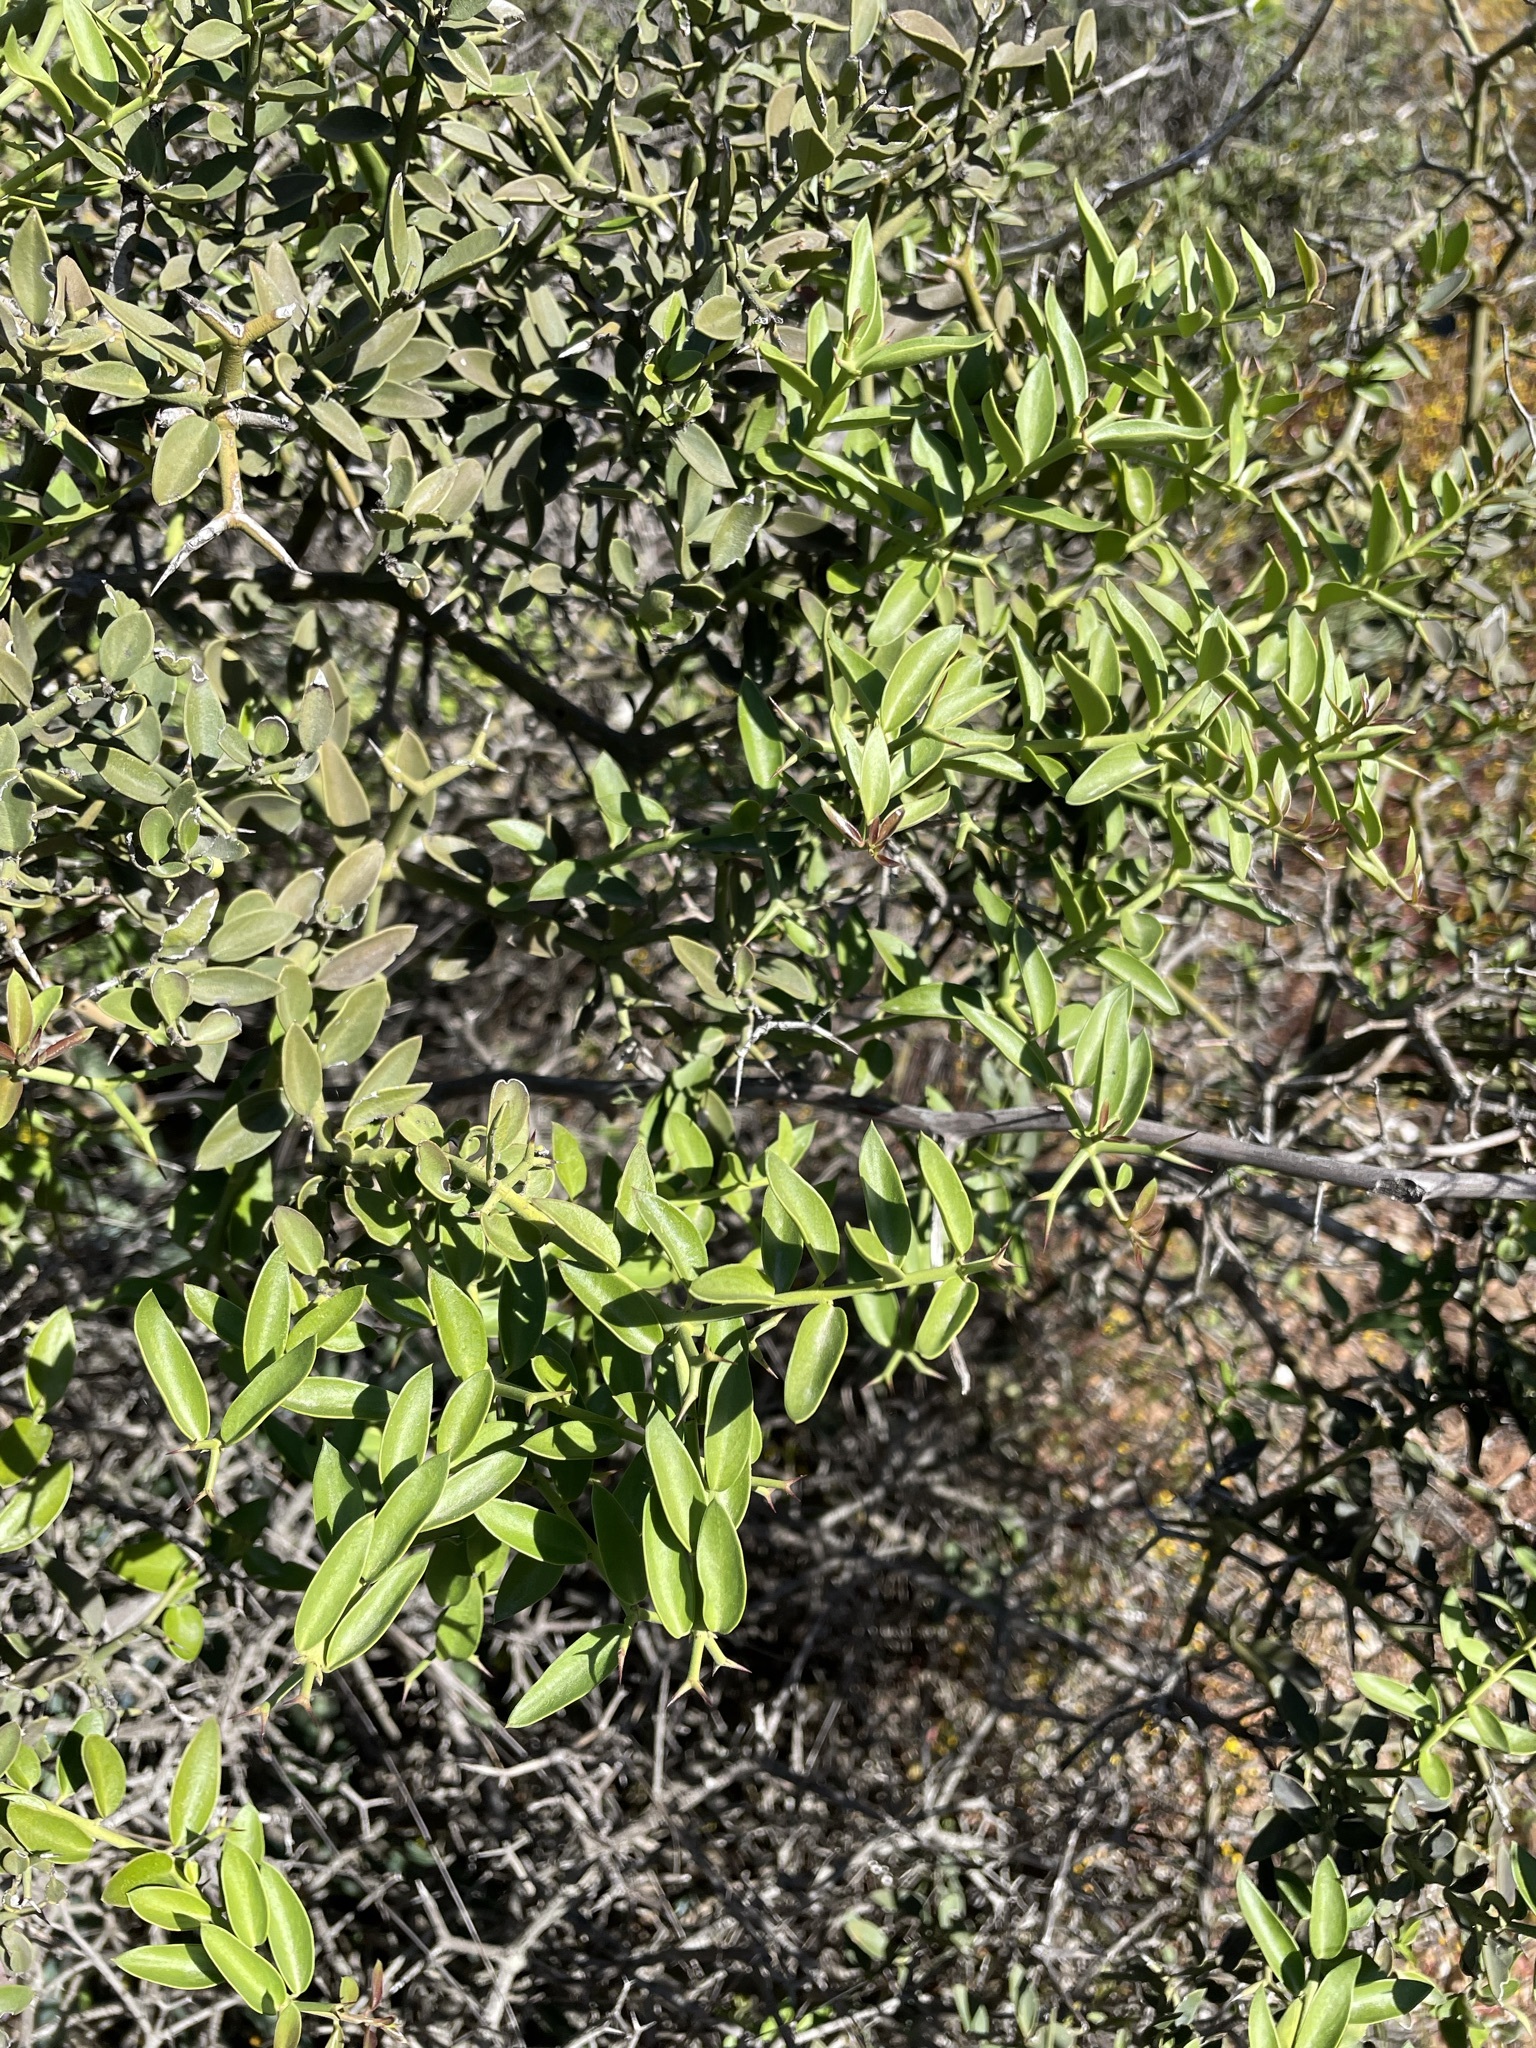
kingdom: Plantae
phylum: Tracheophyta
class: Magnoliopsida
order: Gentianales
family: Apocynaceae
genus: Carissa
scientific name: Carissa haematocarpa
